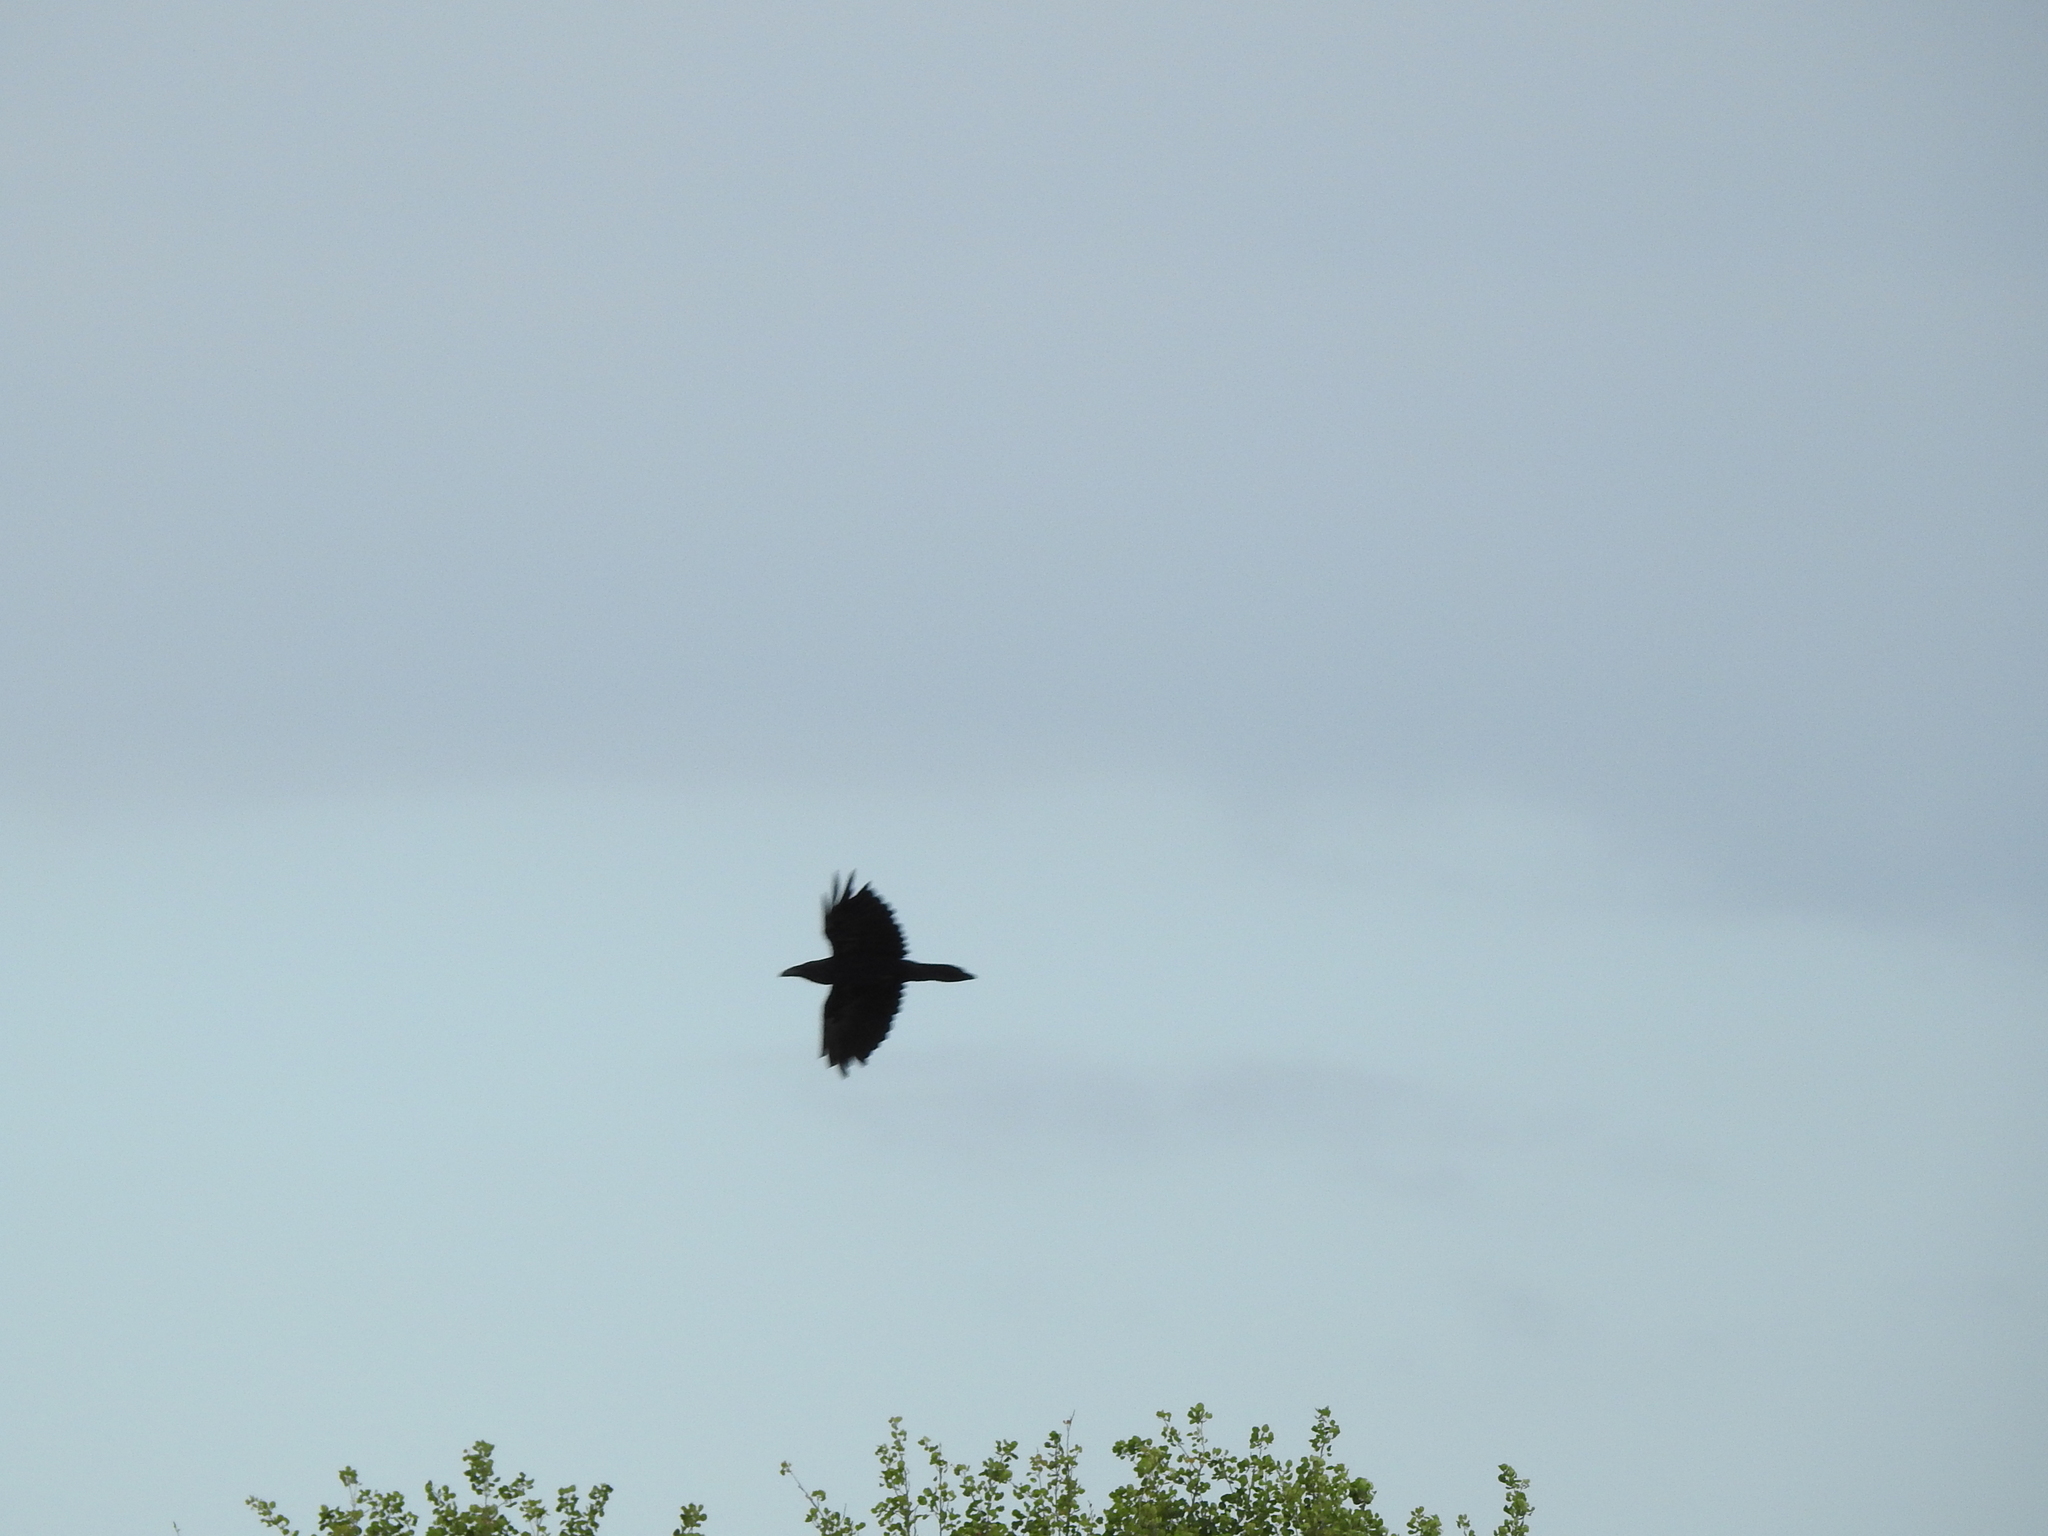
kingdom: Animalia
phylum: Chordata
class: Aves
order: Passeriformes
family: Corvidae
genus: Corvus
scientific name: Corvus corax
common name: Common raven
